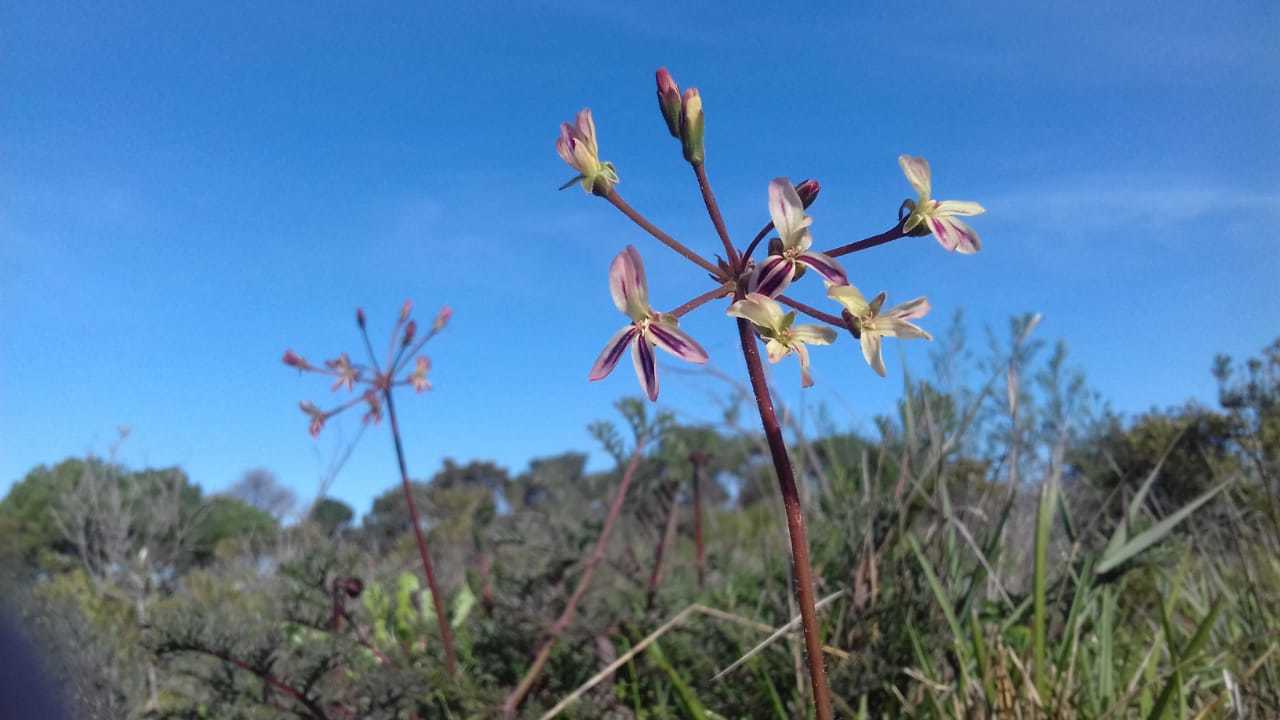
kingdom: Plantae
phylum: Tracheophyta
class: Magnoliopsida
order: Geraniales
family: Geraniaceae
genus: Pelargonium
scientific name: Pelargonium triste
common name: Night-scent pelargonium
